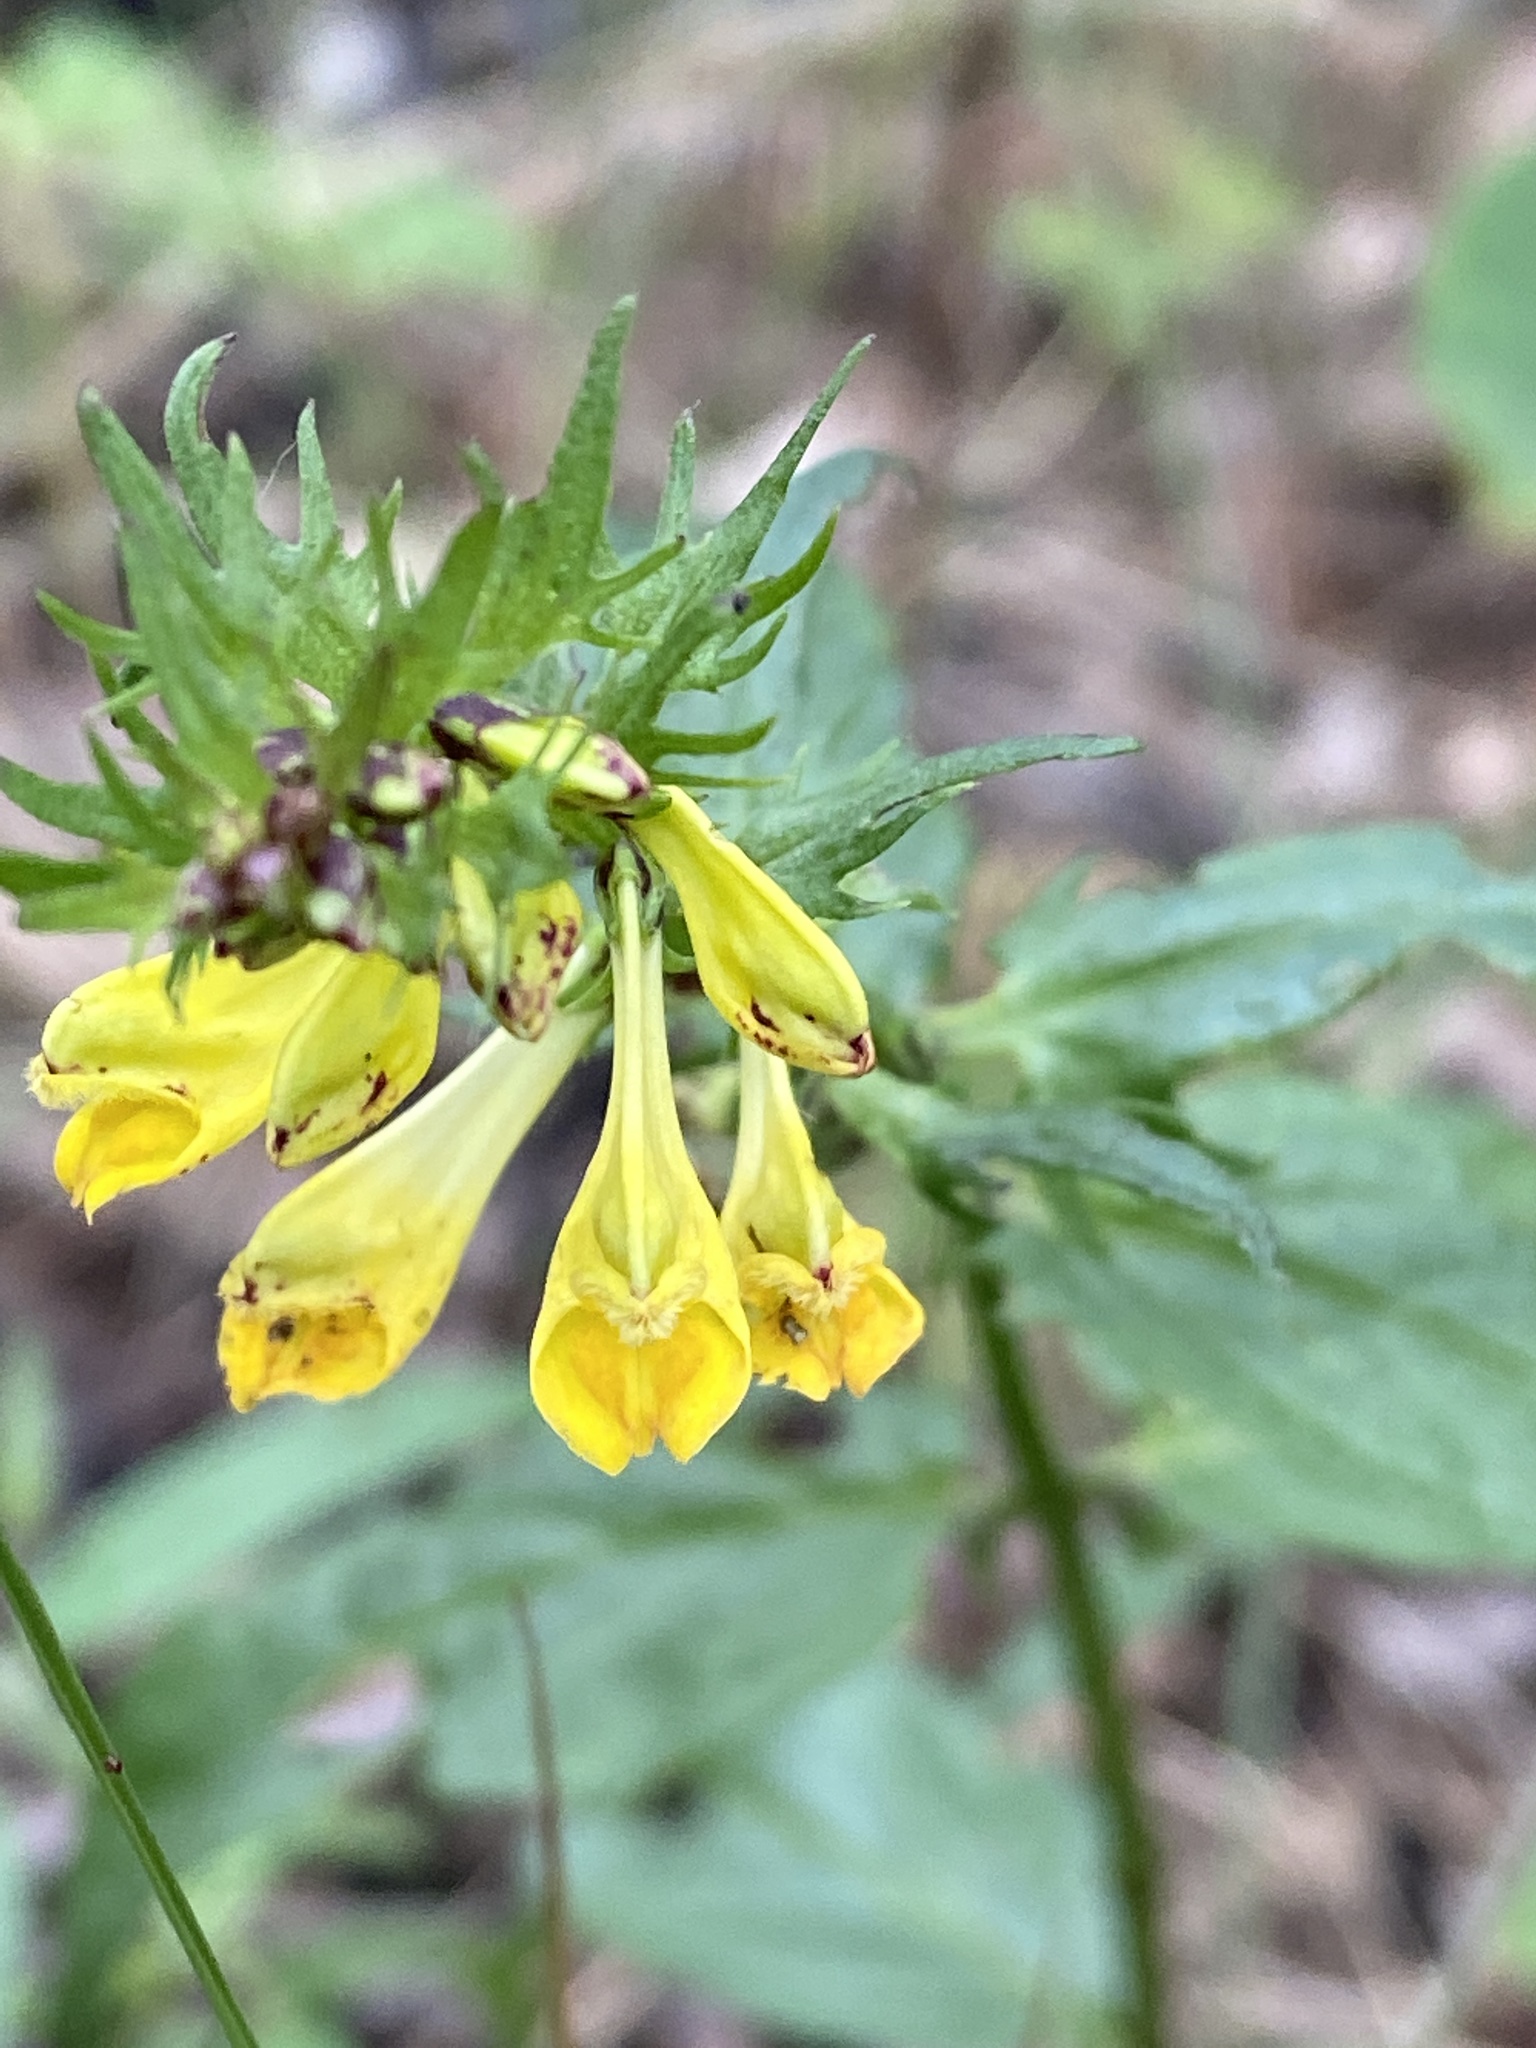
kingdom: Plantae
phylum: Tracheophyta
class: Magnoliopsida
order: Lamiales
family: Orobanchaceae
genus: Melampyrum
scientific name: Melampyrum pratense
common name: Common cow-wheat
